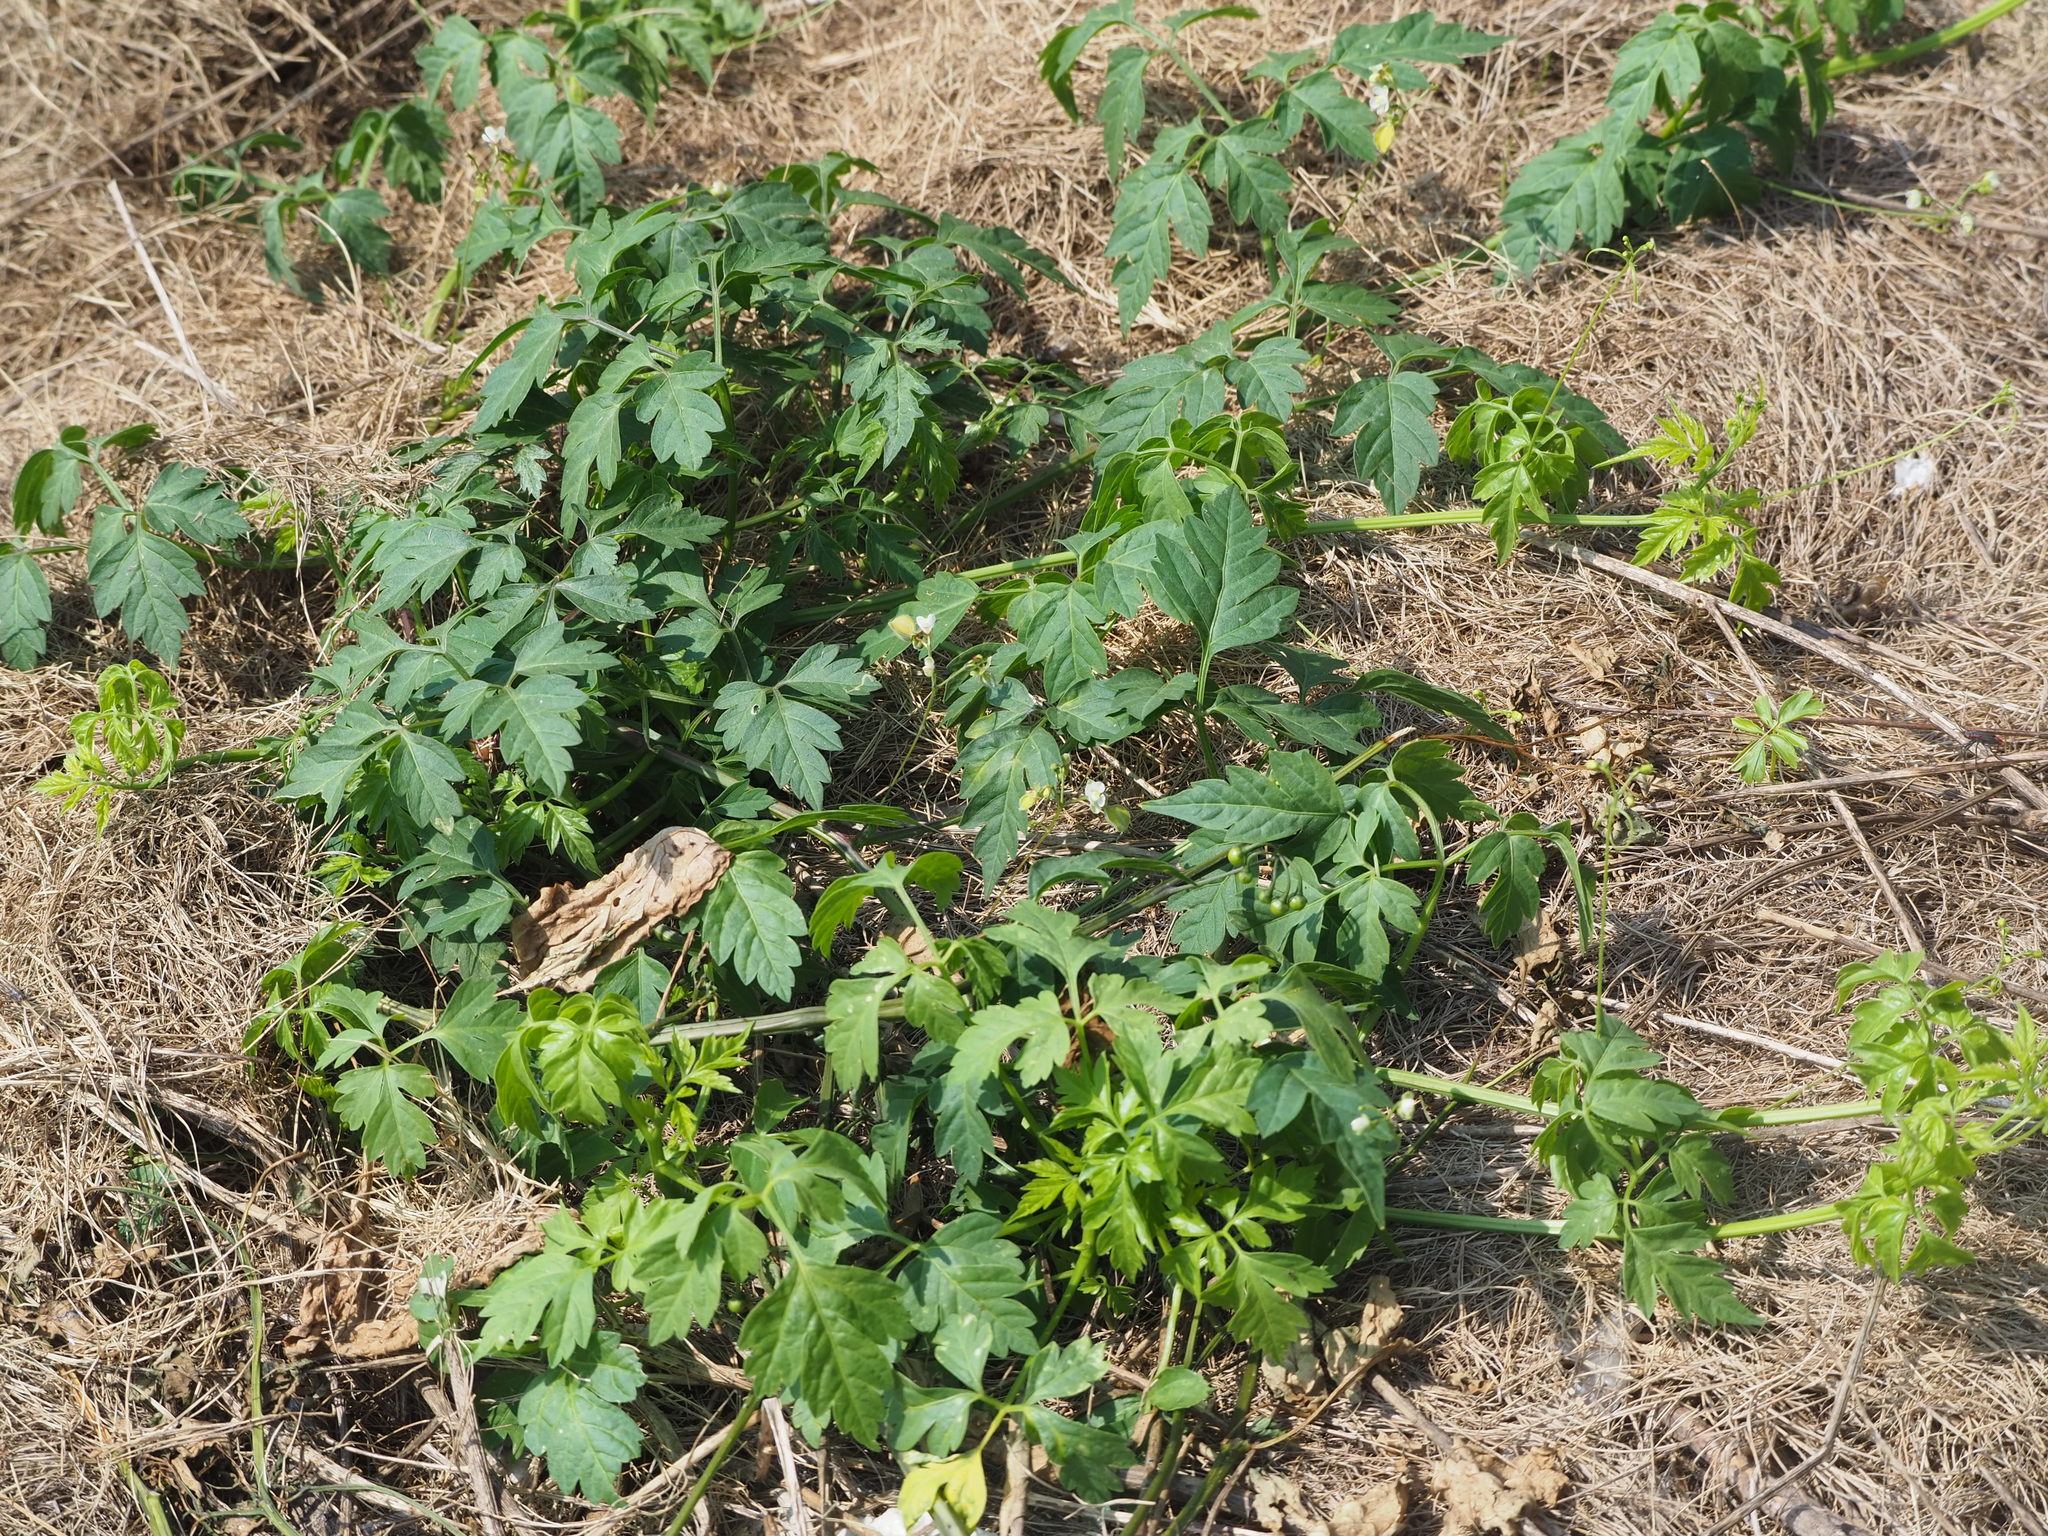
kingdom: Plantae
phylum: Tracheophyta
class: Magnoliopsida
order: Sapindales
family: Sapindaceae
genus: Cardiospermum
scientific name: Cardiospermum halicacabum
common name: Balloon vine
